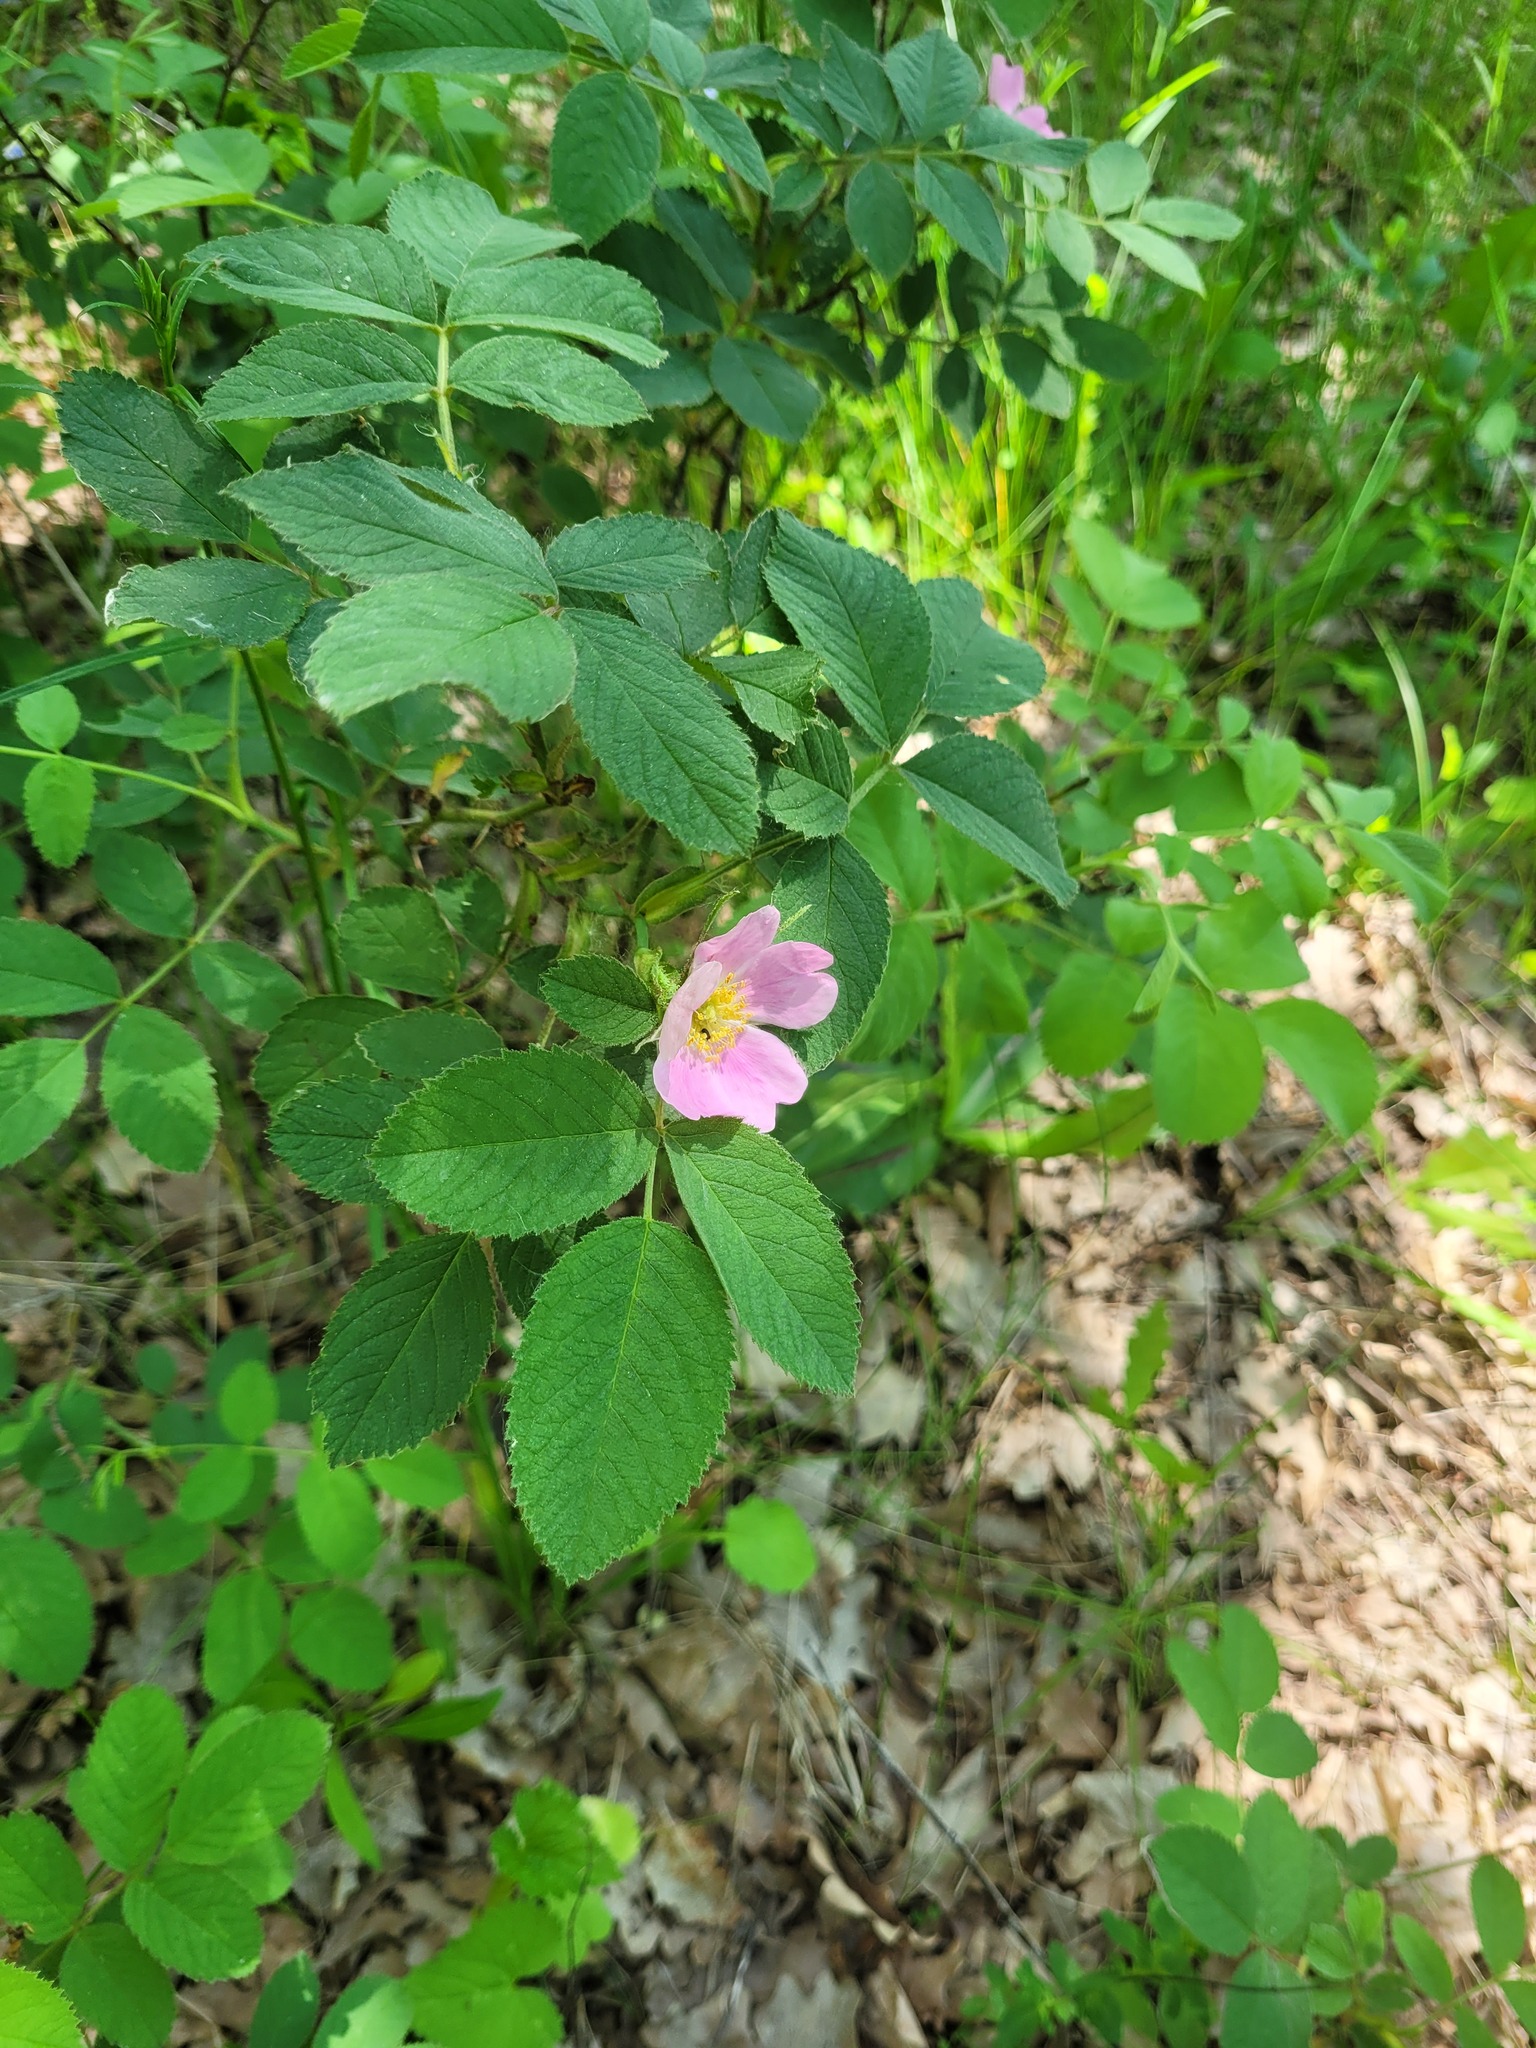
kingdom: Plantae
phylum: Tracheophyta
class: Magnoliopsida
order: Rosales
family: Rosaceae
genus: Rosa
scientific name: Rosa villosa
